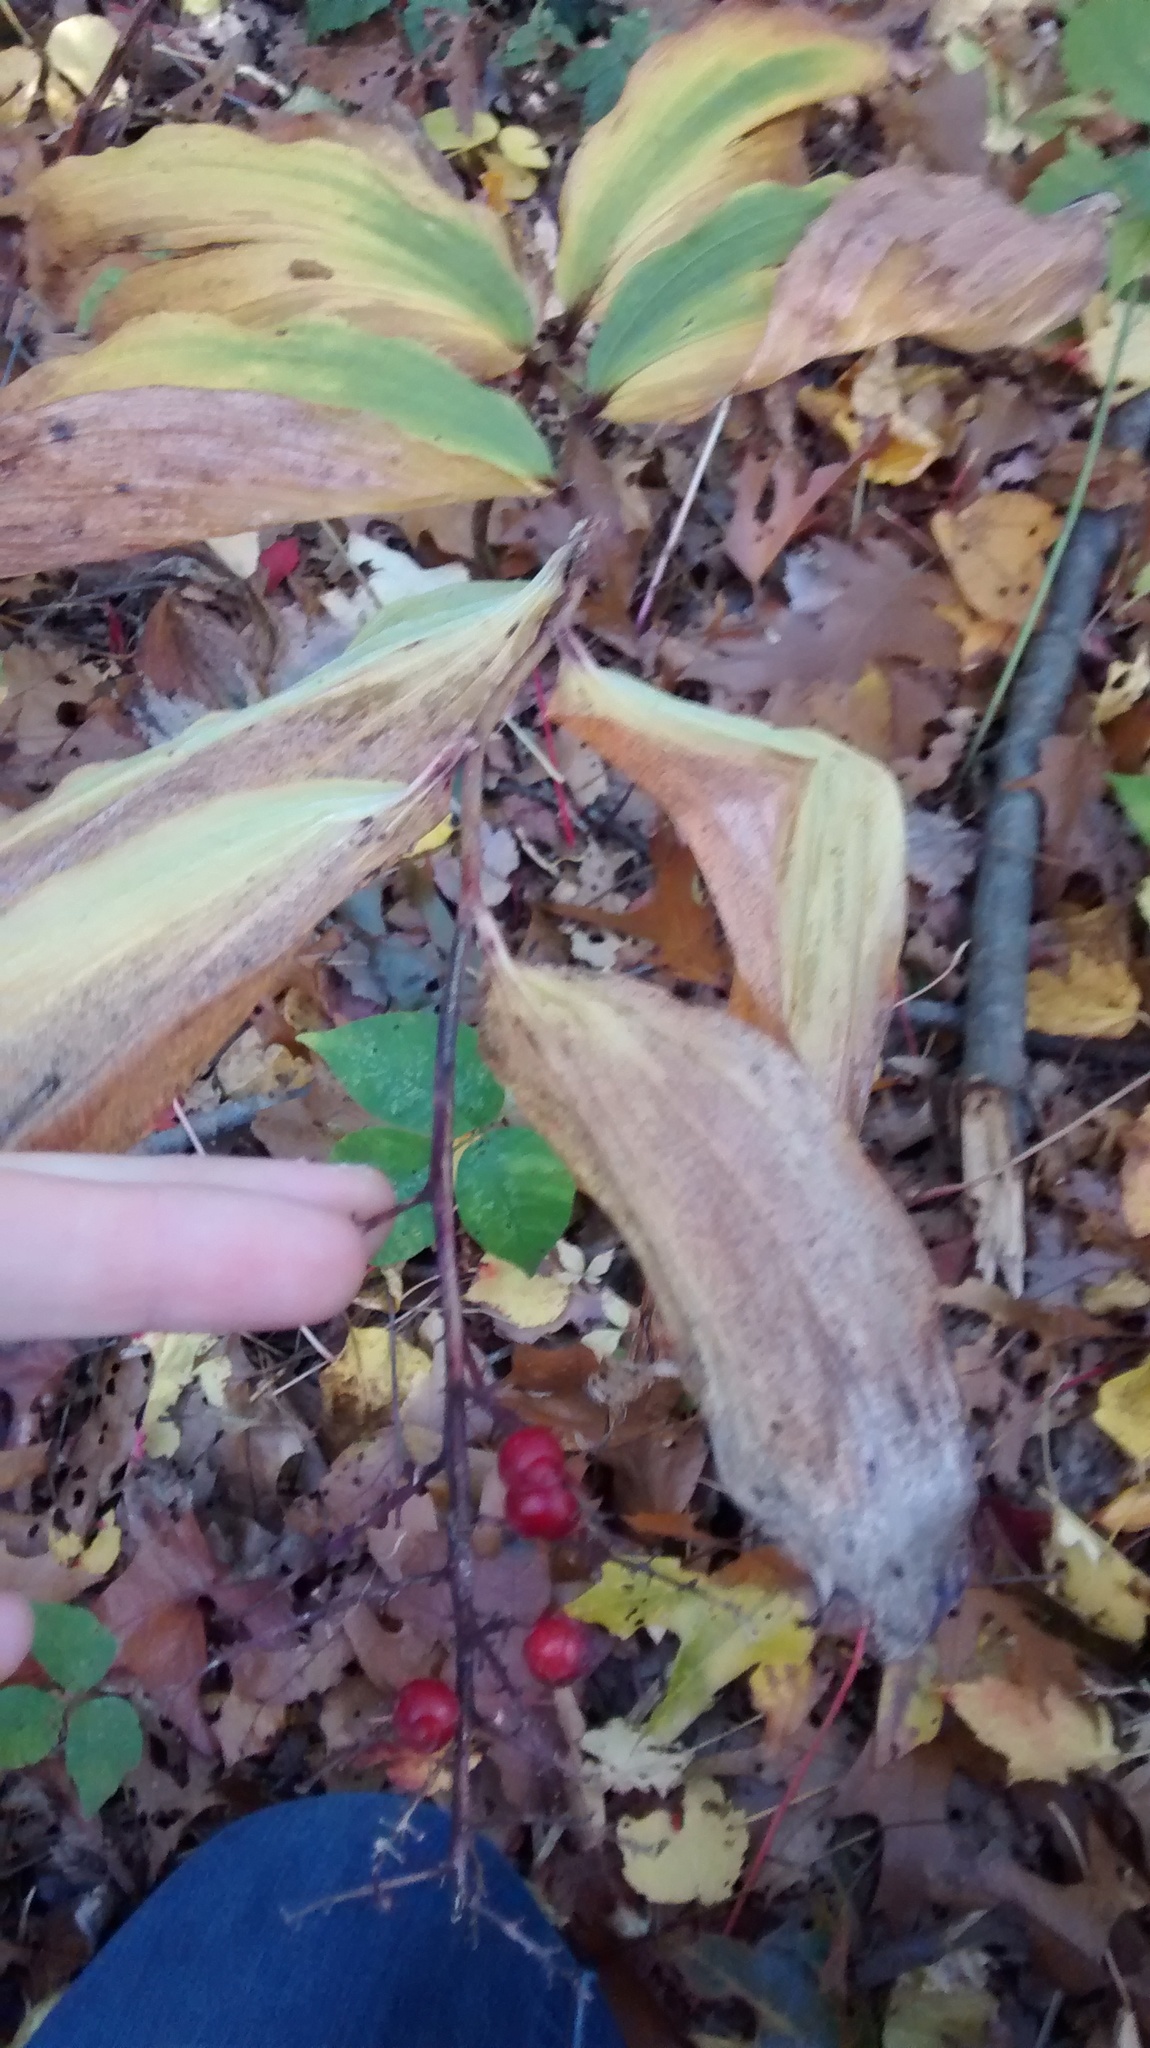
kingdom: Plantae
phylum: Tracheophyta
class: Liliopsida
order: Asparagales
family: Asparagaceae
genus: Maianthemum
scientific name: Maianthemum racemosum
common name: False spikenard
